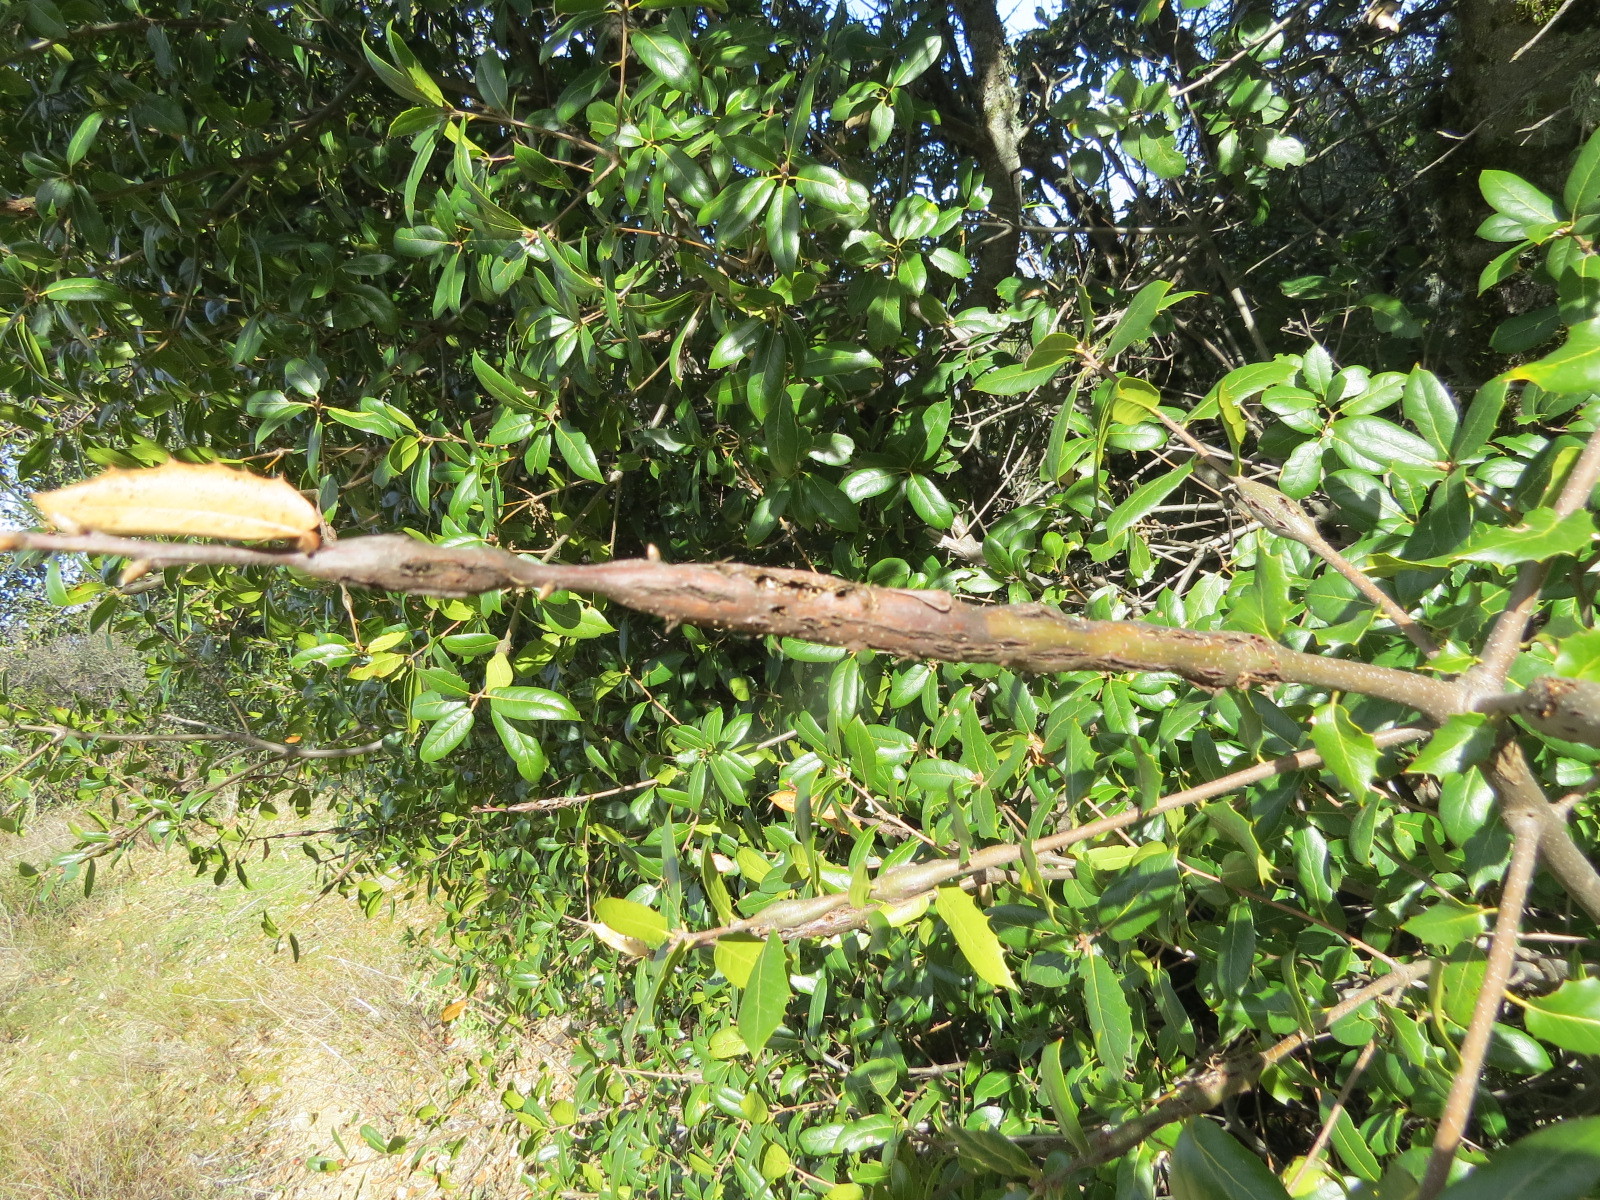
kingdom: Animalia
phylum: Arthropoda
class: Insecta
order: Hymenoptera
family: Cynipidae
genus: Callirhytis
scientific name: Callirhytis
